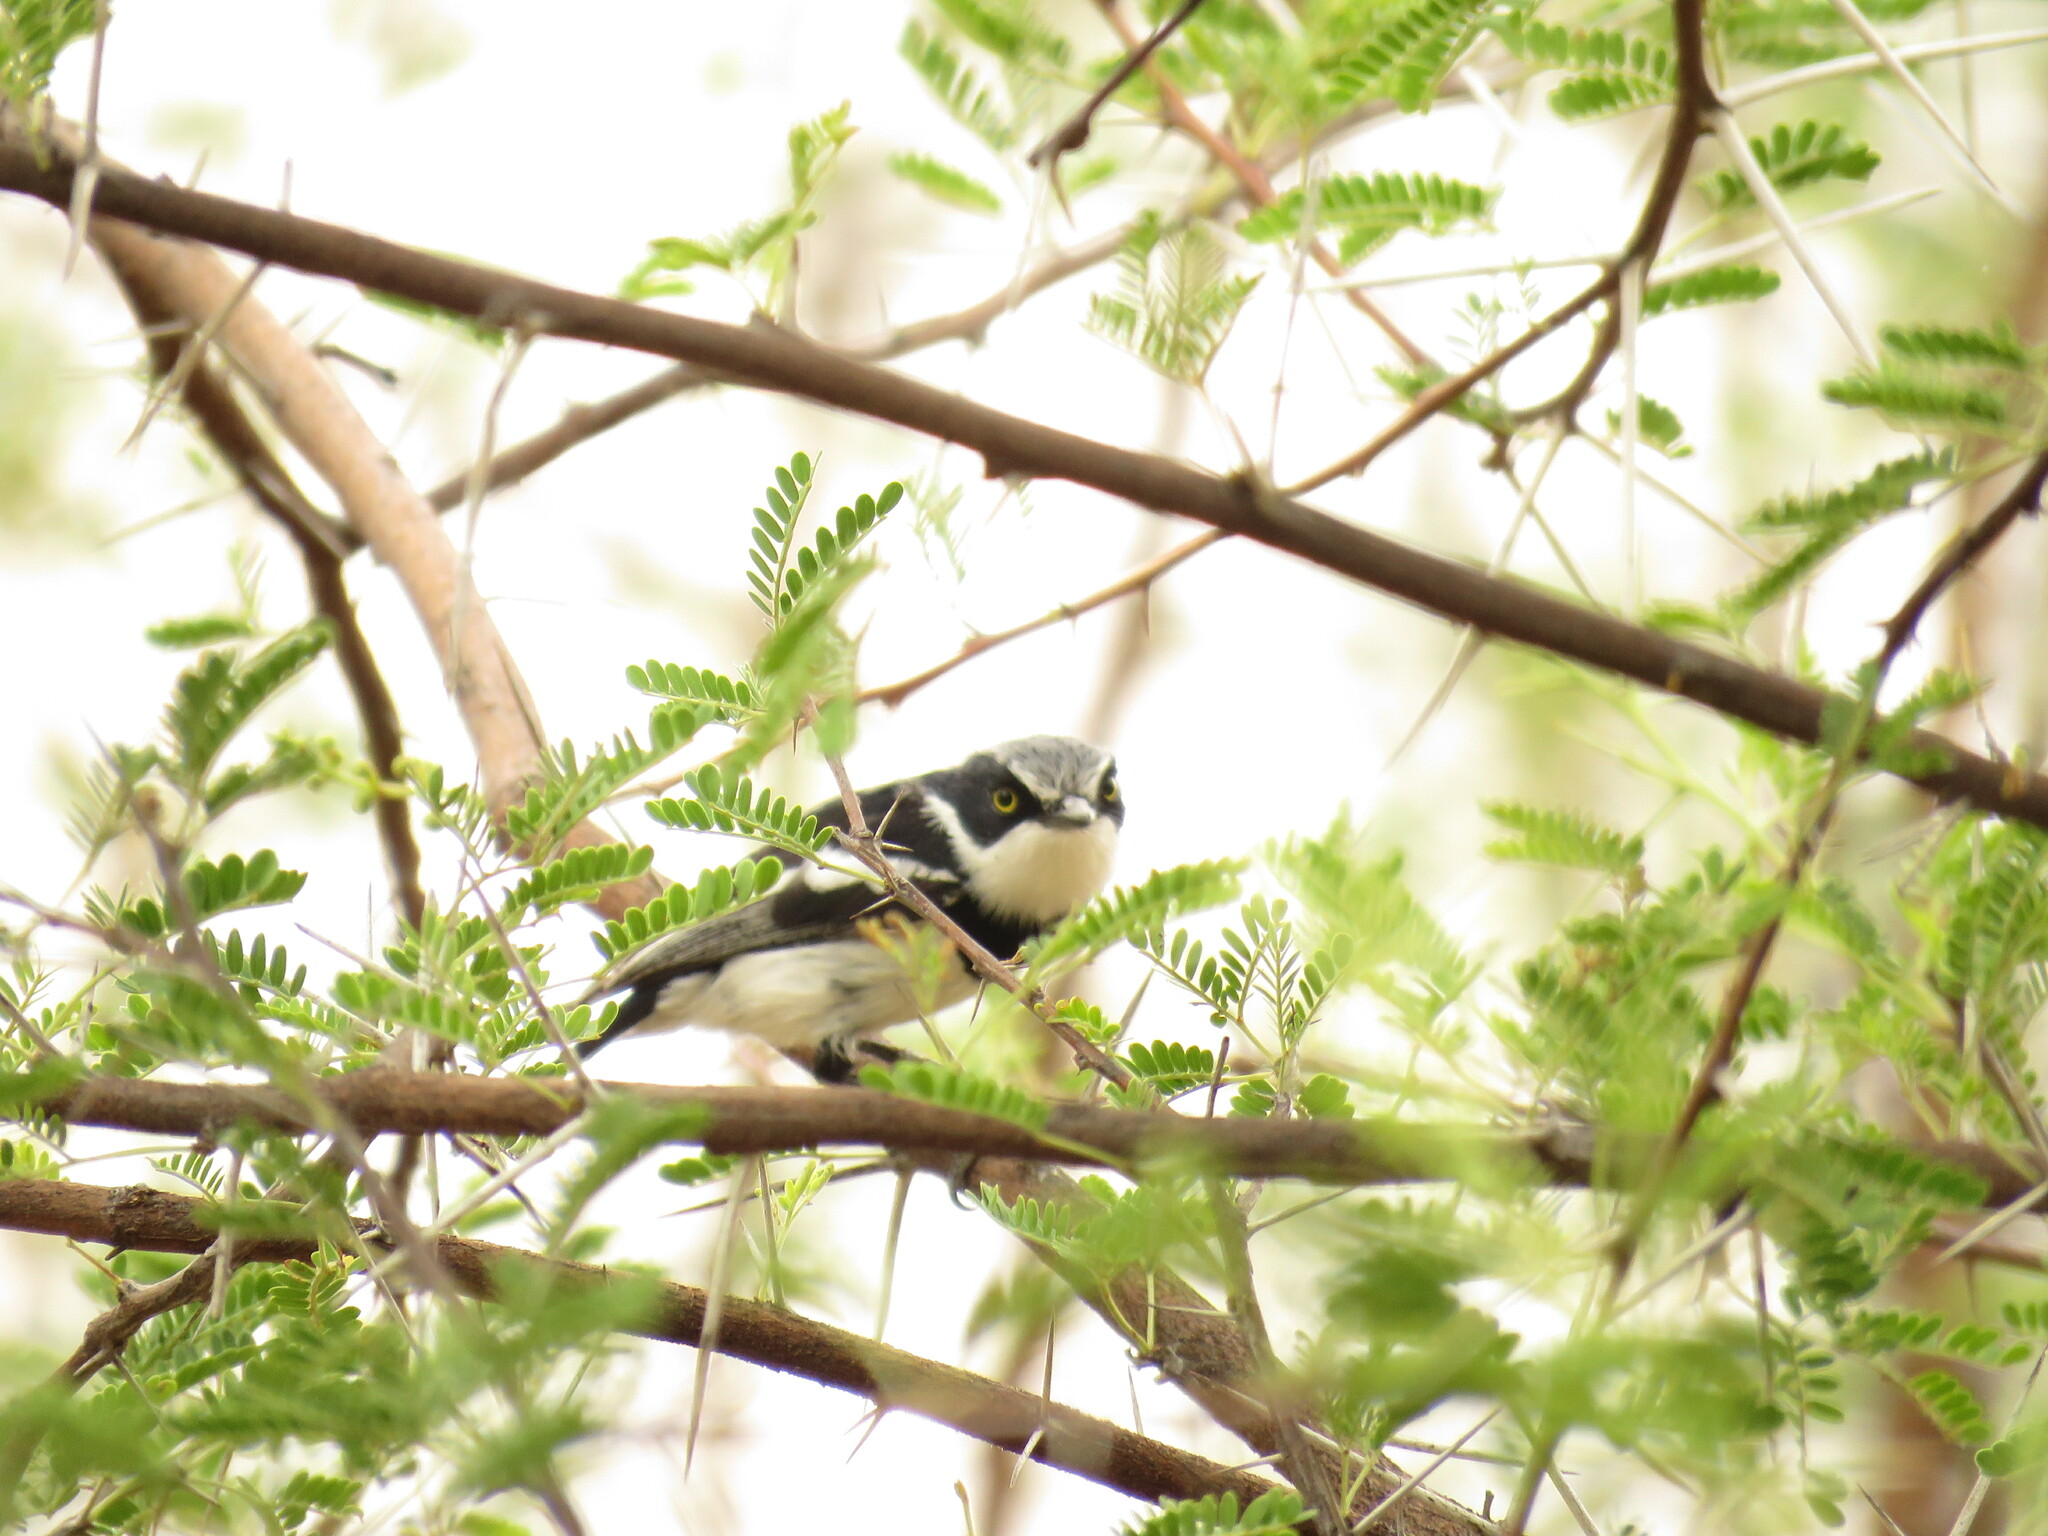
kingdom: Animalia
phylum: Chordata
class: Aves
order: Passeriformes
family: Platysteiridae
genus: Batis
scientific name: Batis pririt
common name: Pririt batis
